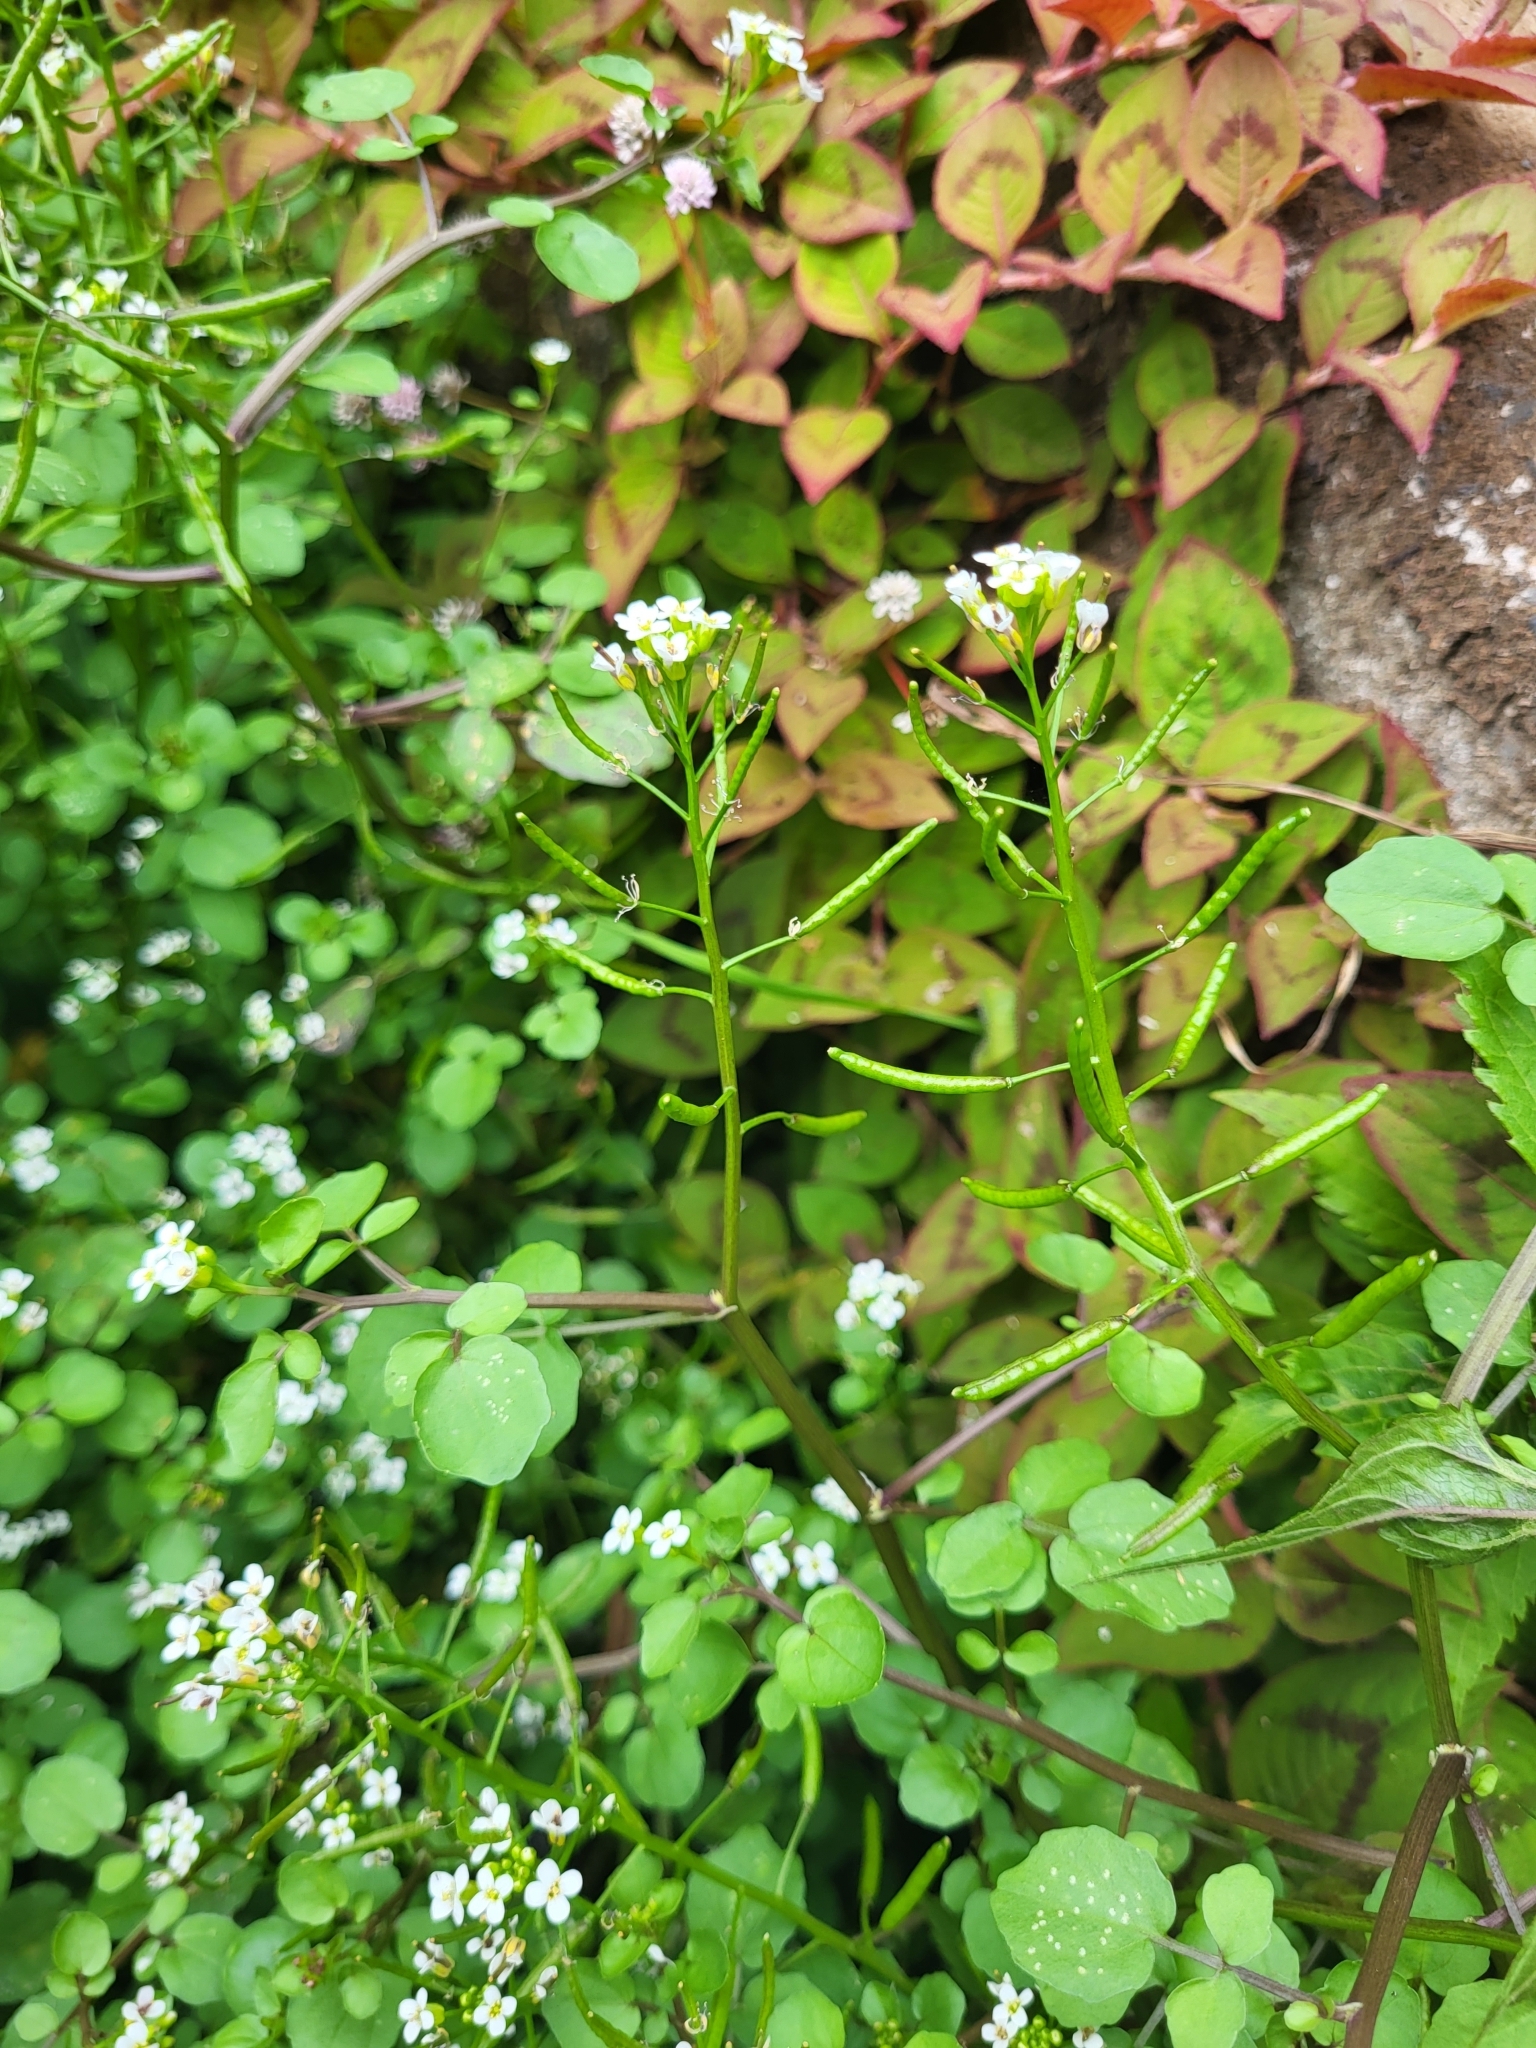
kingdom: Plantae
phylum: Tracheophyta
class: Magnoliopsida
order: Brassicales
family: Brassicaceae
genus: Nasturtium
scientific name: Nasturtium sterile
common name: Yellowcress
